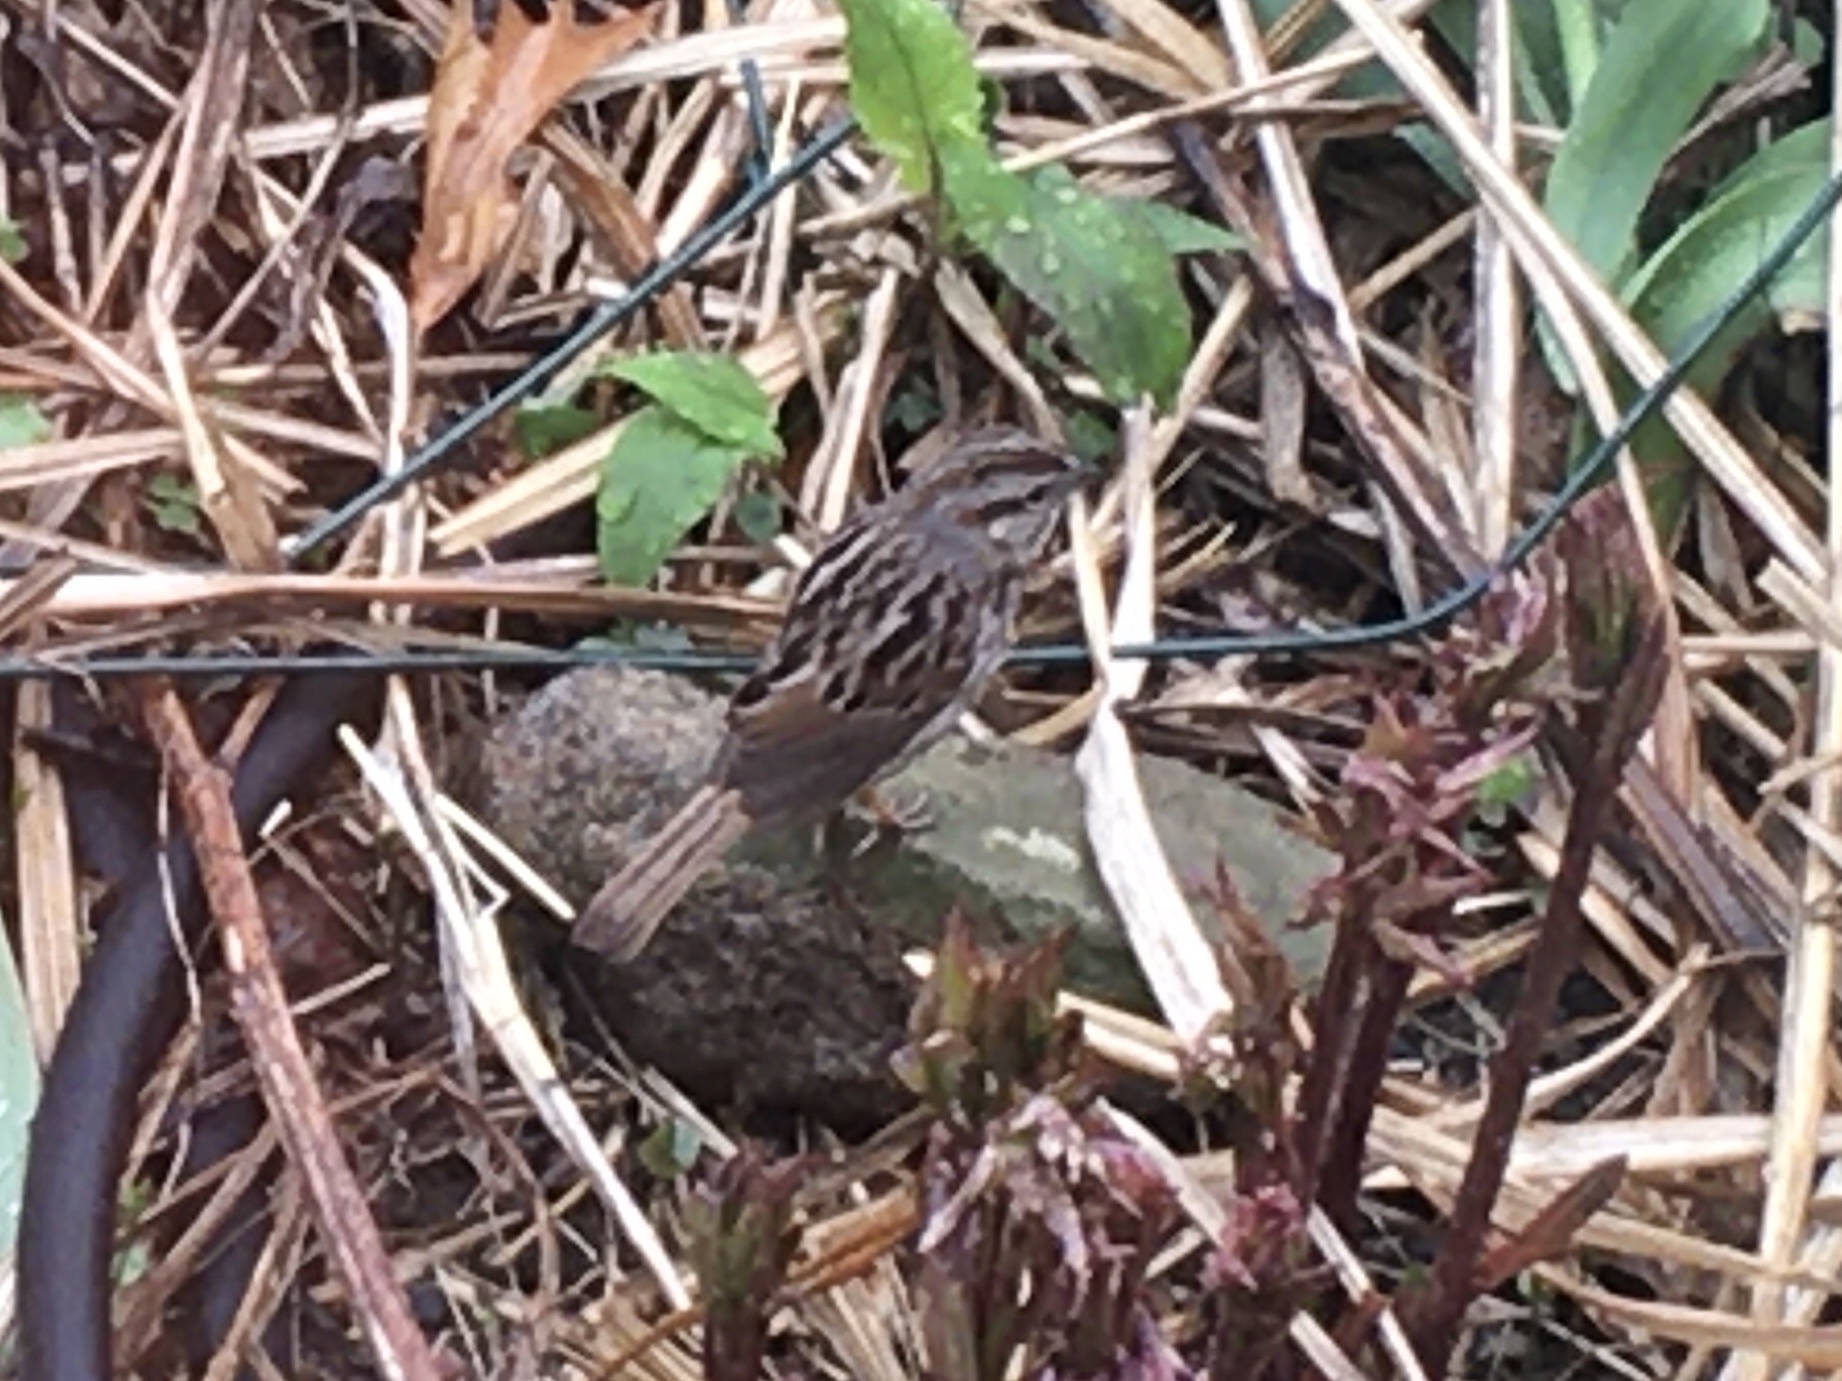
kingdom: Animalia
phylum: Chordata
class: Aves
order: Passeriformes
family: Passerellidae
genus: Melospiza
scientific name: Melospiza melodia
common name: Song sparrow
